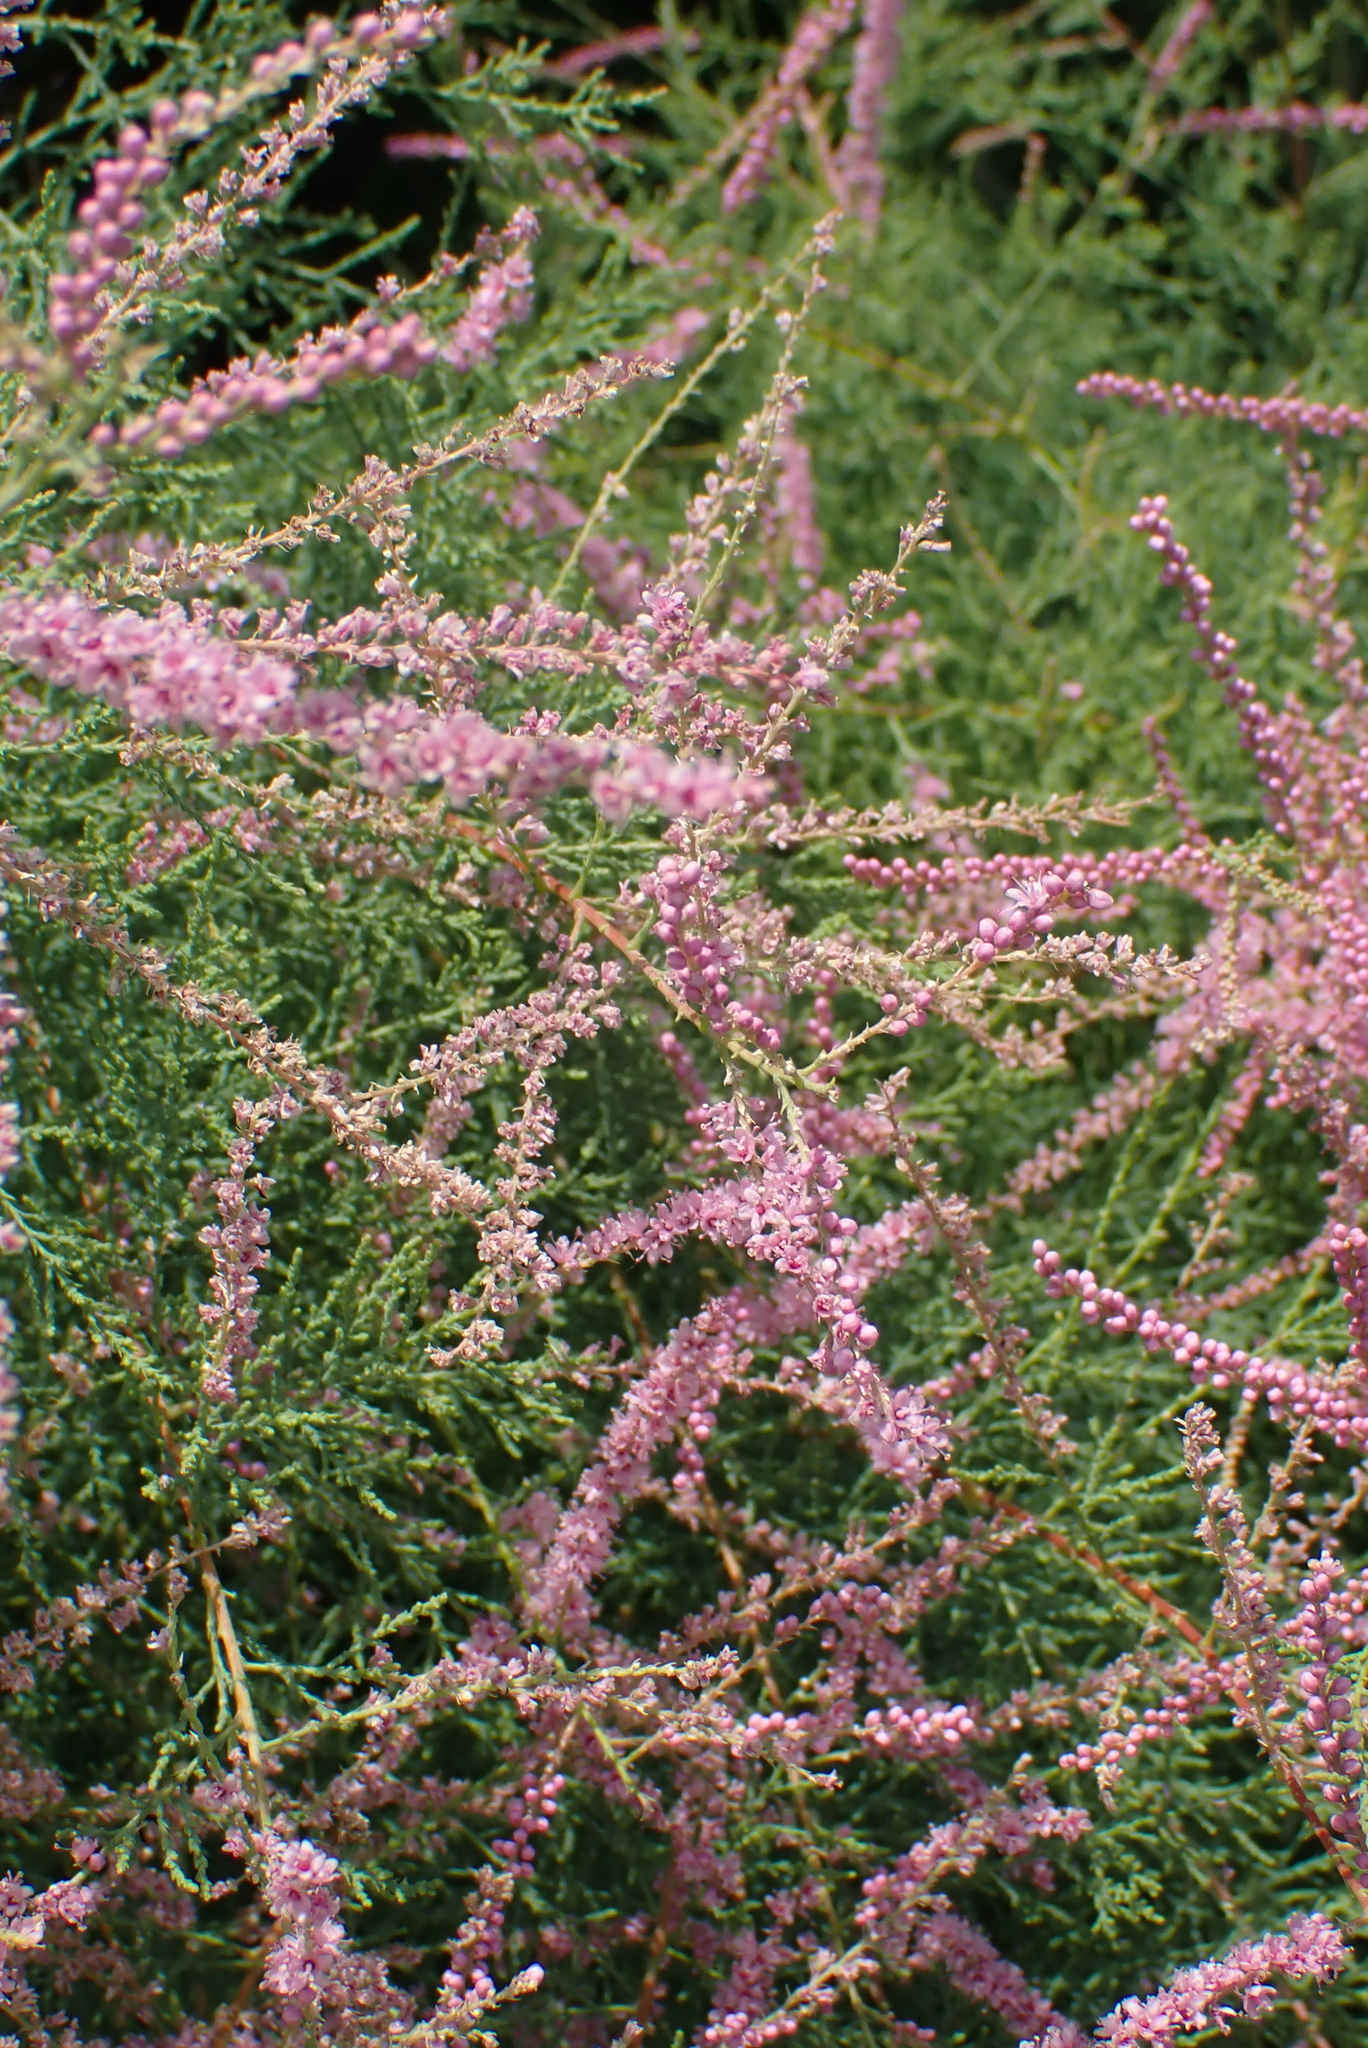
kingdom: Plantae
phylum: Tracheophyta
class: Magnoliopsida
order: Caryophyllales
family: Tamaricaceae
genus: Tamarix
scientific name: Tamarix gallica
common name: Tamarisk
